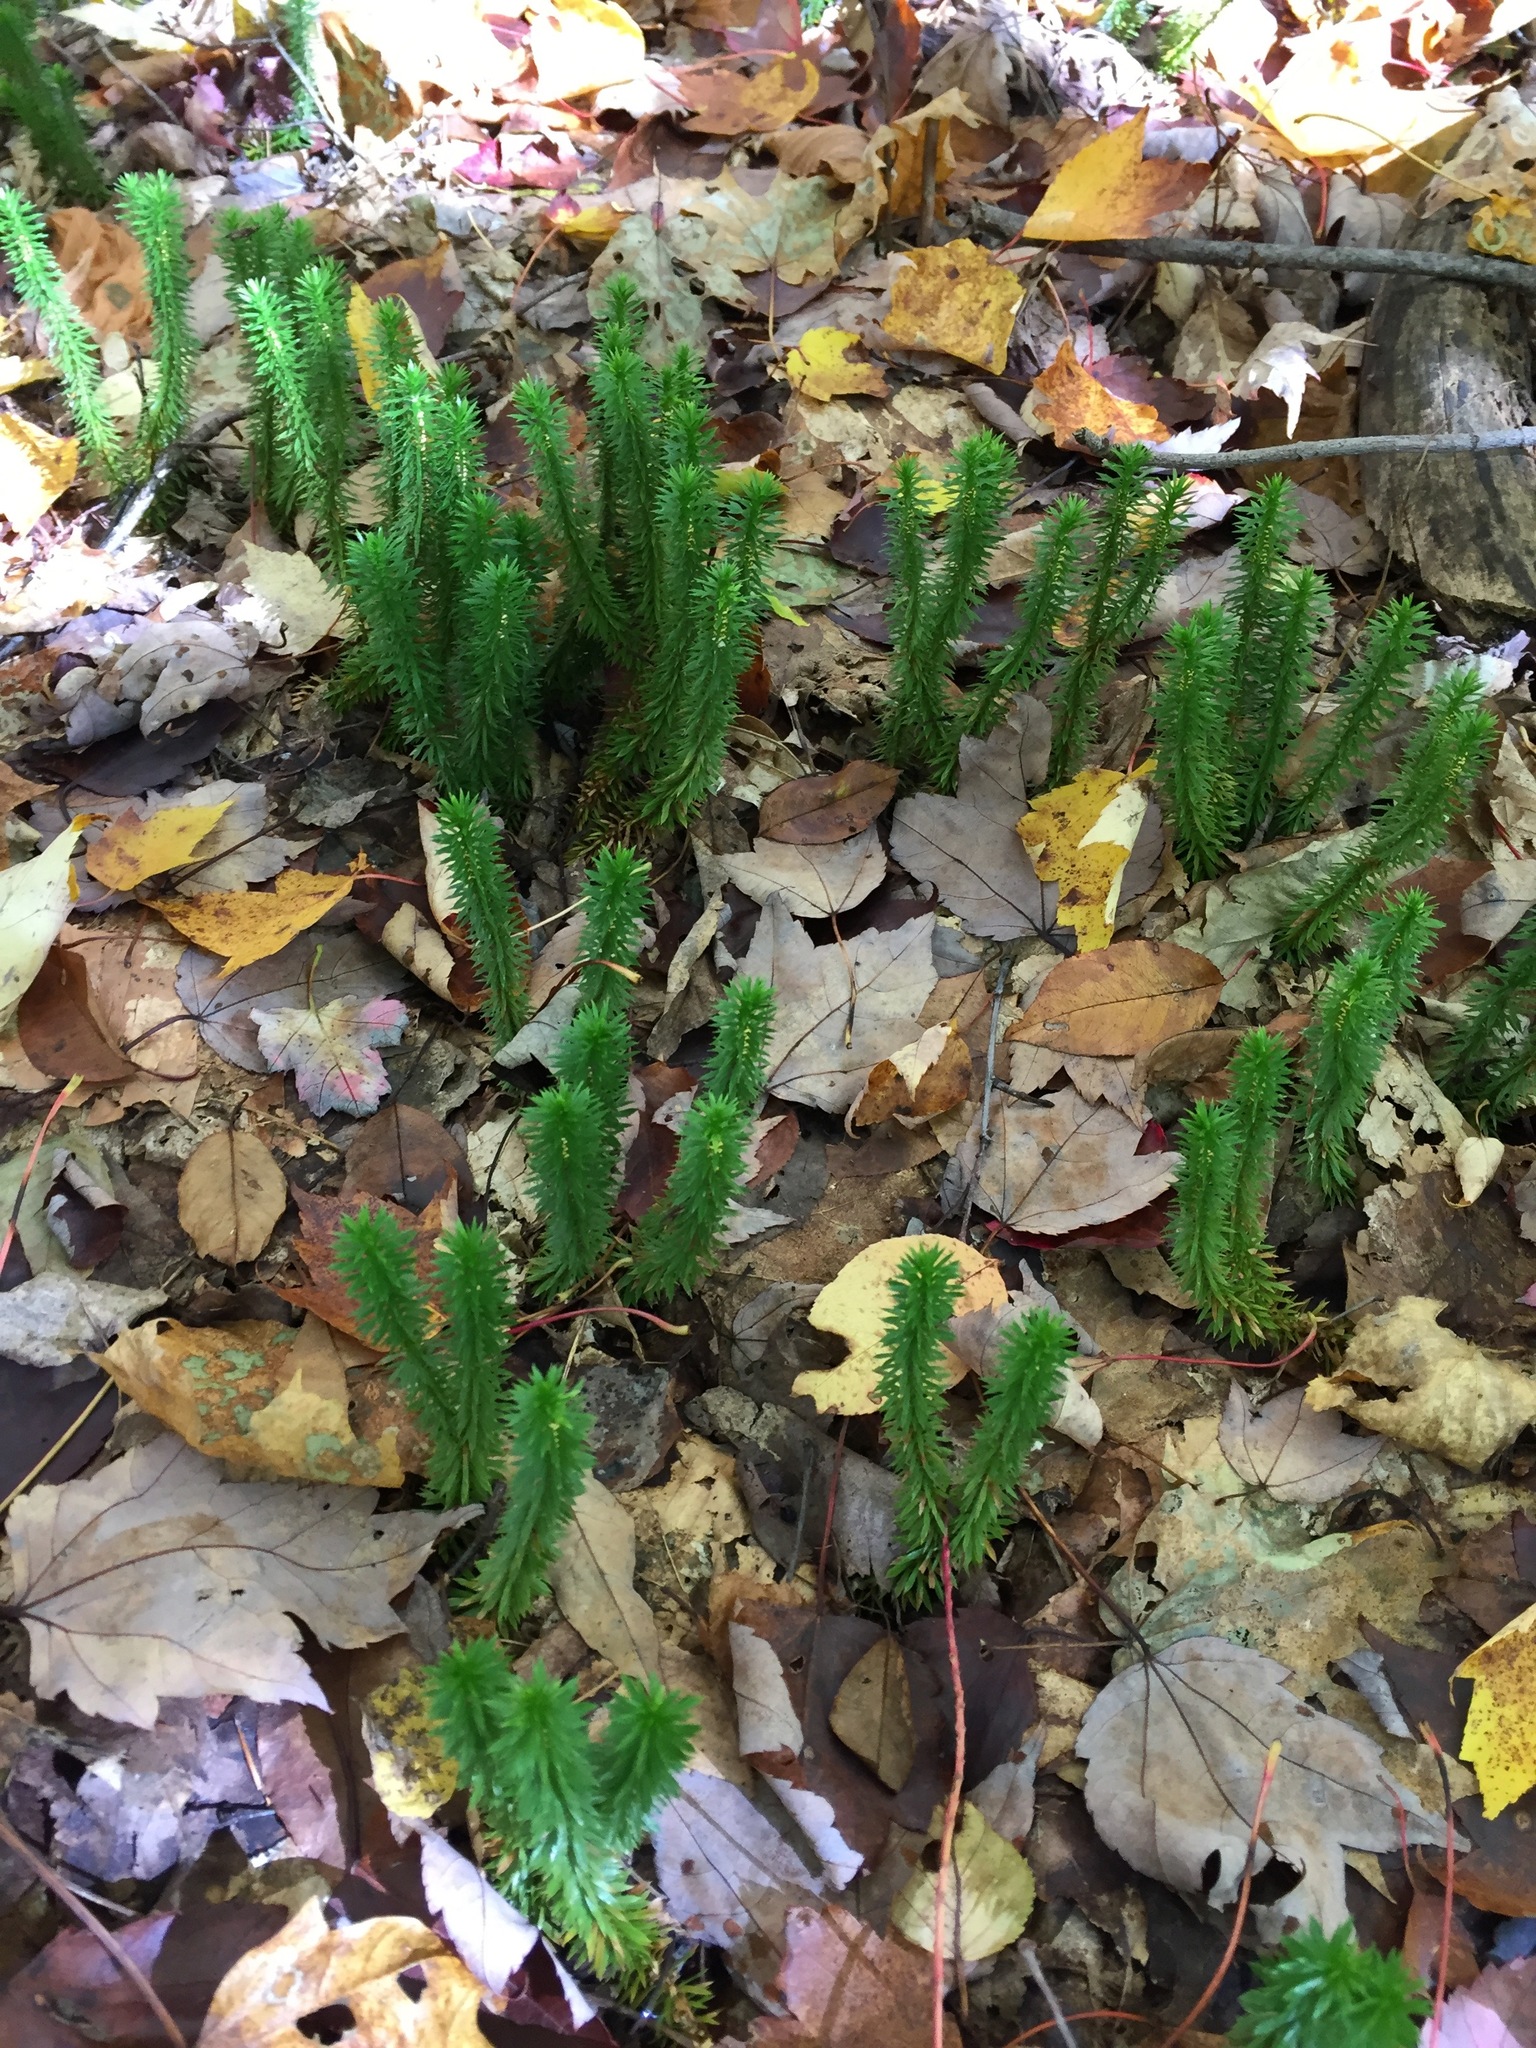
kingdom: Plantae
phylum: Tracheophyta
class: Lycopodiopsida
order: Lycopodiales
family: Lycopodiaceae
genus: Huperzia
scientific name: Huperzia lucidula
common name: Shining clubmoss
